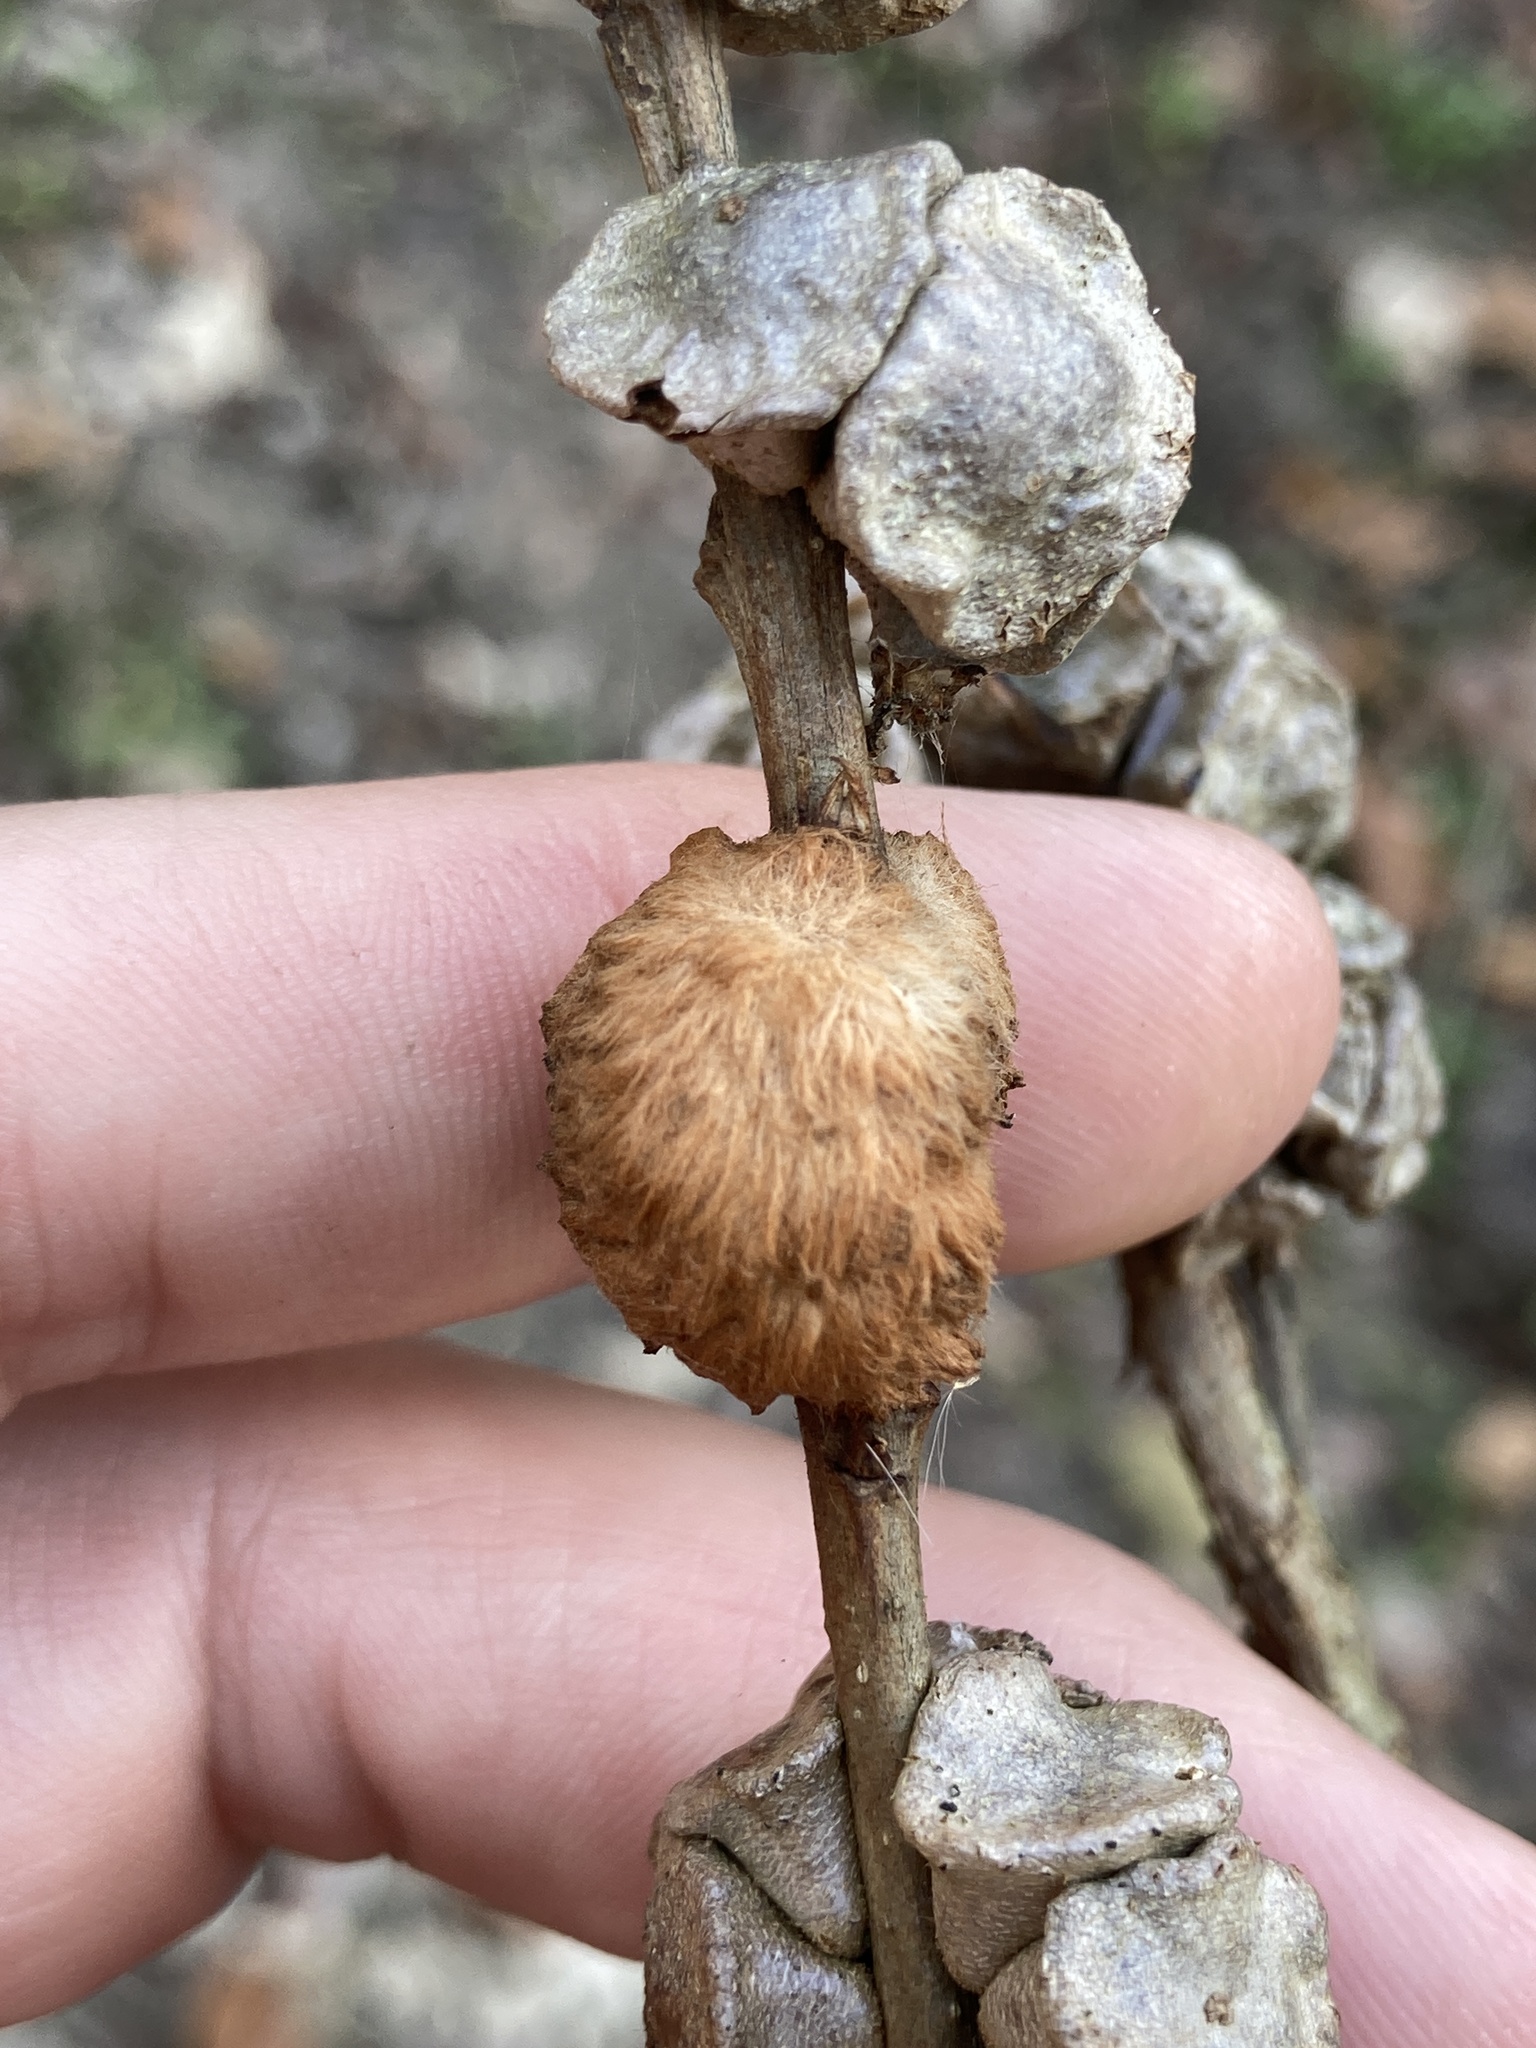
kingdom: Animalia
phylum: Arthropoda
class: Insecta
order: Hymenoptera
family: Cynipidae
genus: Striatoandricus
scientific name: Striatoandricus aciculatus
